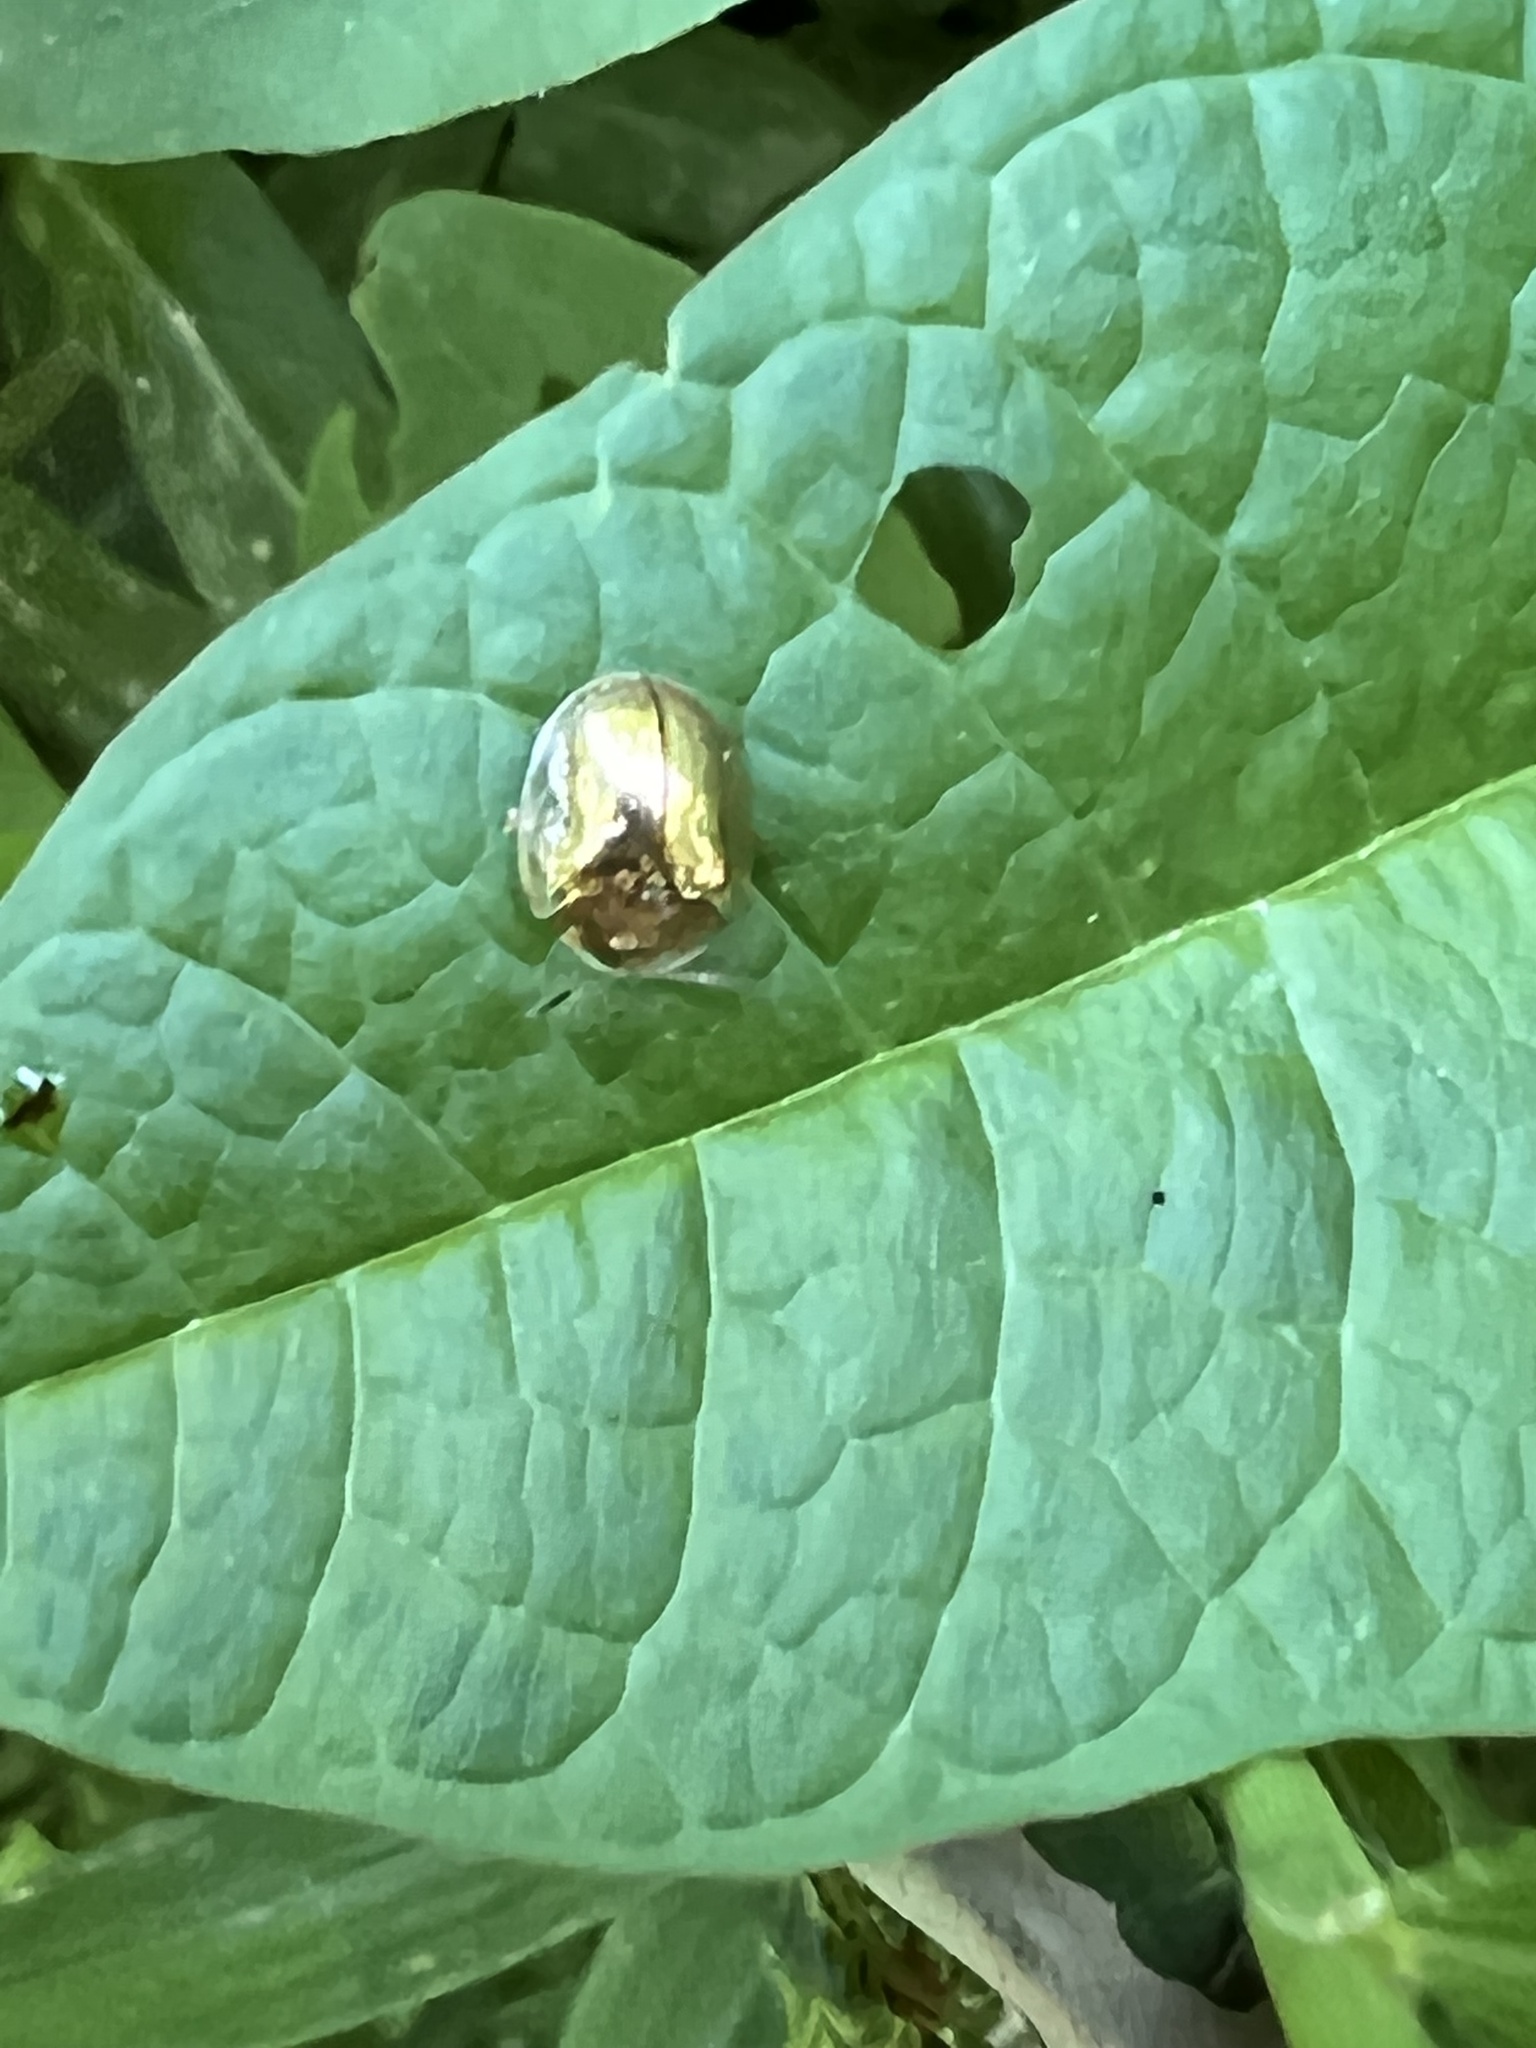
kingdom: Animalia
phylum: Arthropoda
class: Insecta
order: Coleoptera
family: Chrysomelidae
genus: Charidotella
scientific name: Charidotella sexpunctata
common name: Golden tortoise beetle
